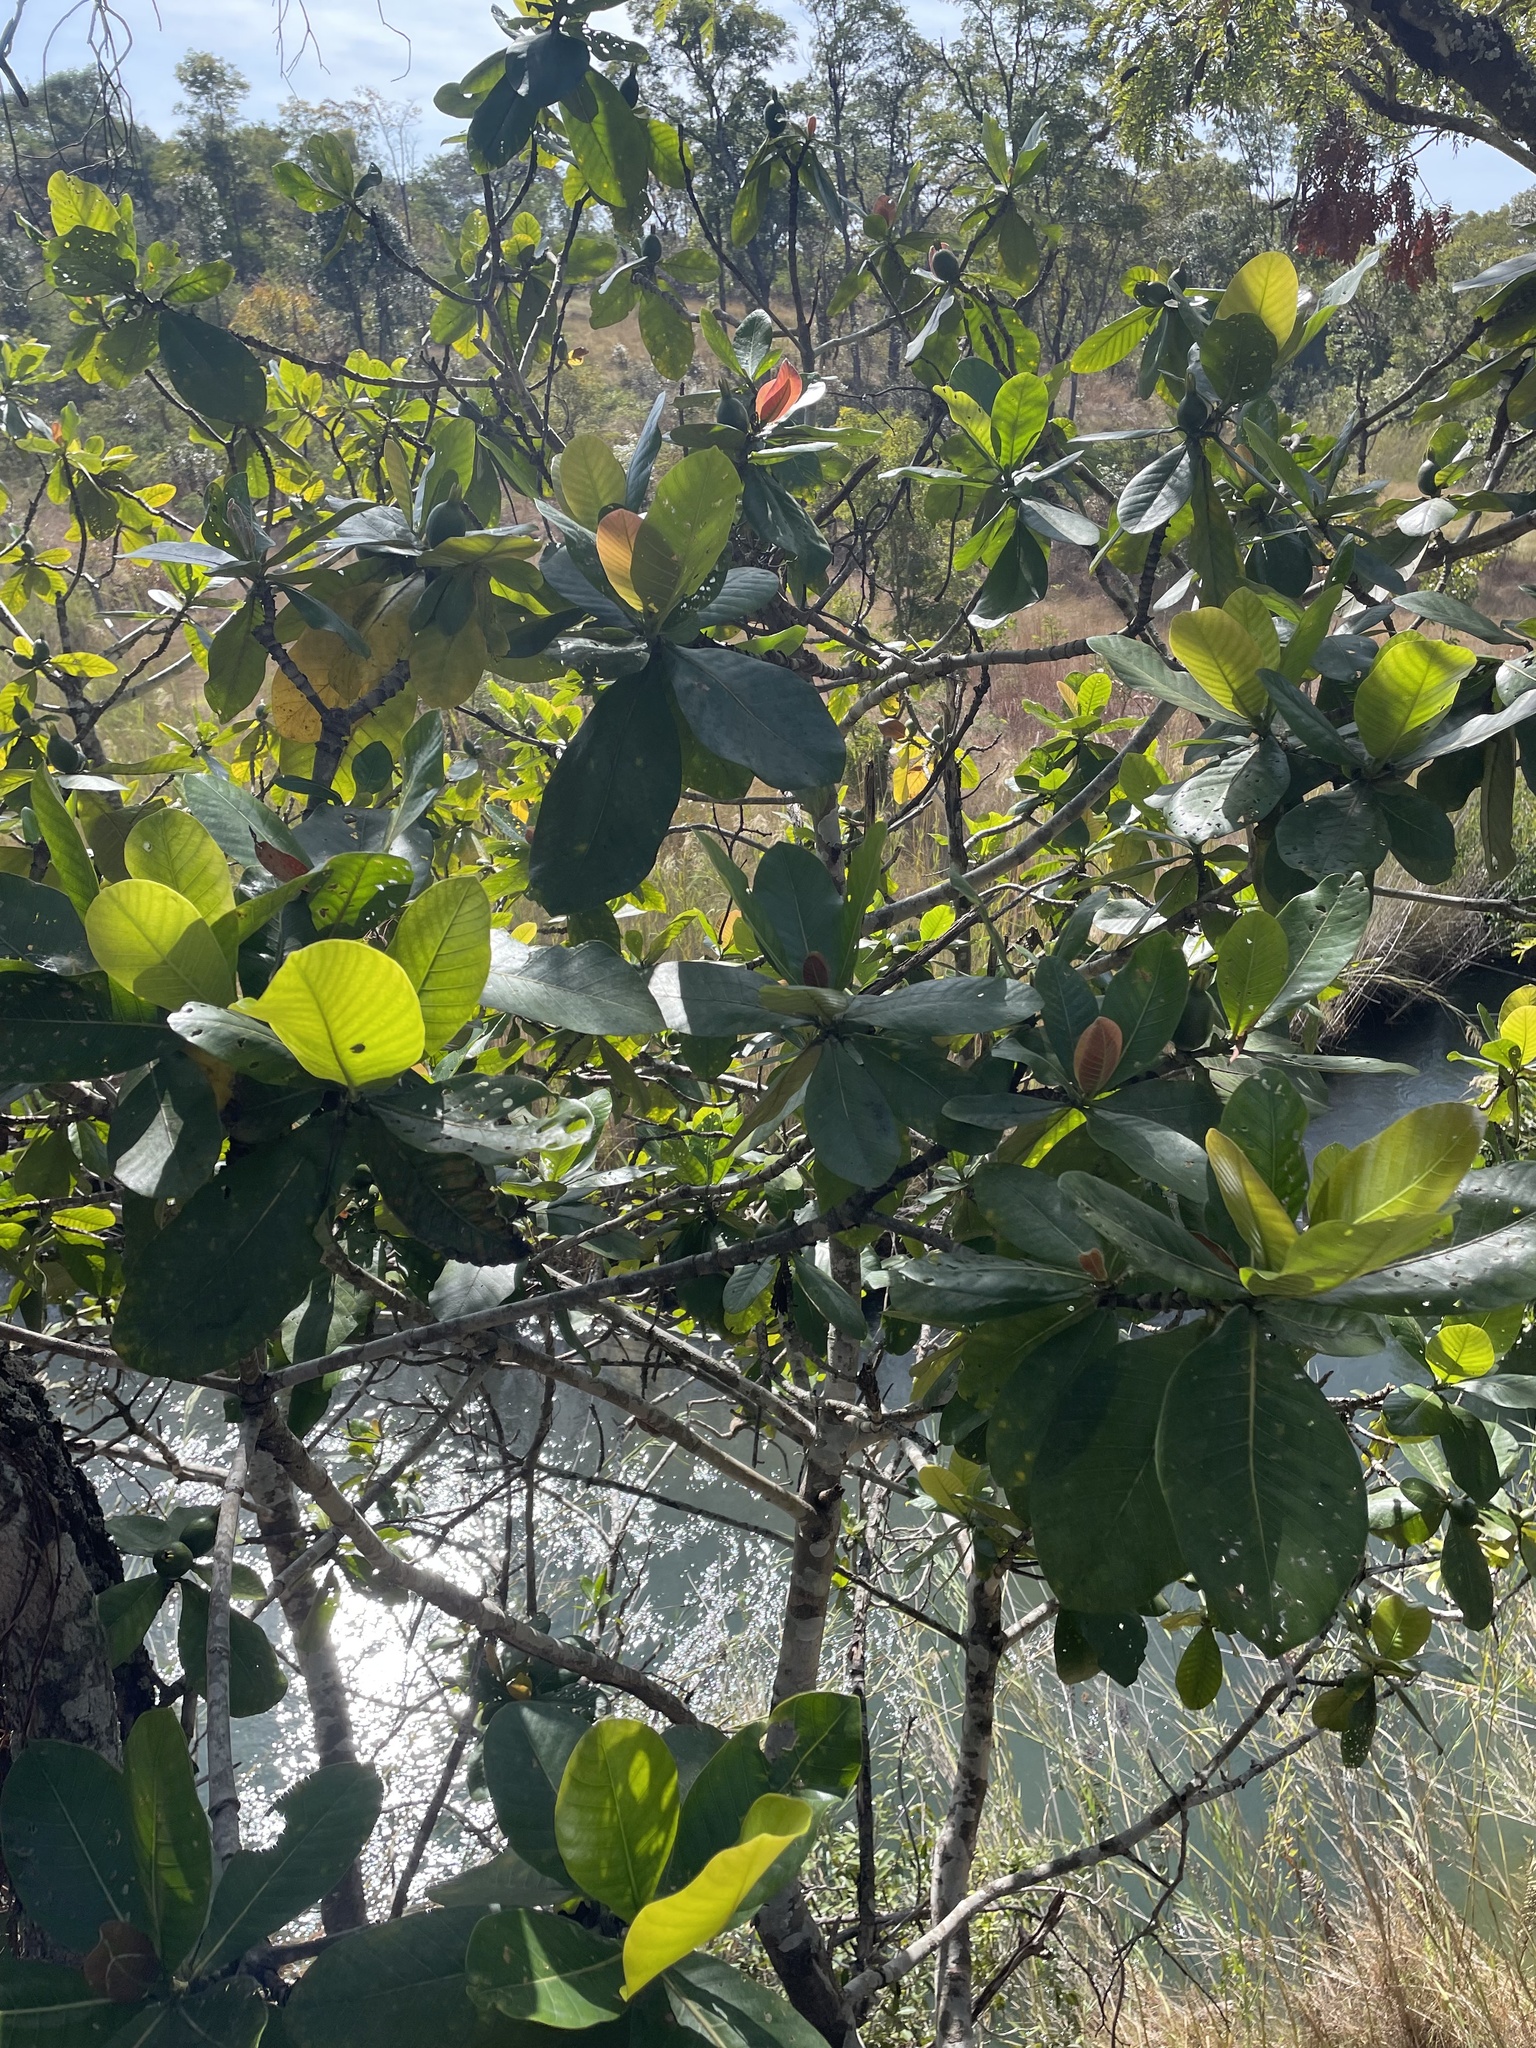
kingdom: Plantae
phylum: Tracheophyta
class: Magnoliopsida
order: Gentianales
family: Rubiaceae
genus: Gardenia
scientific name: Gardenia imperialis
